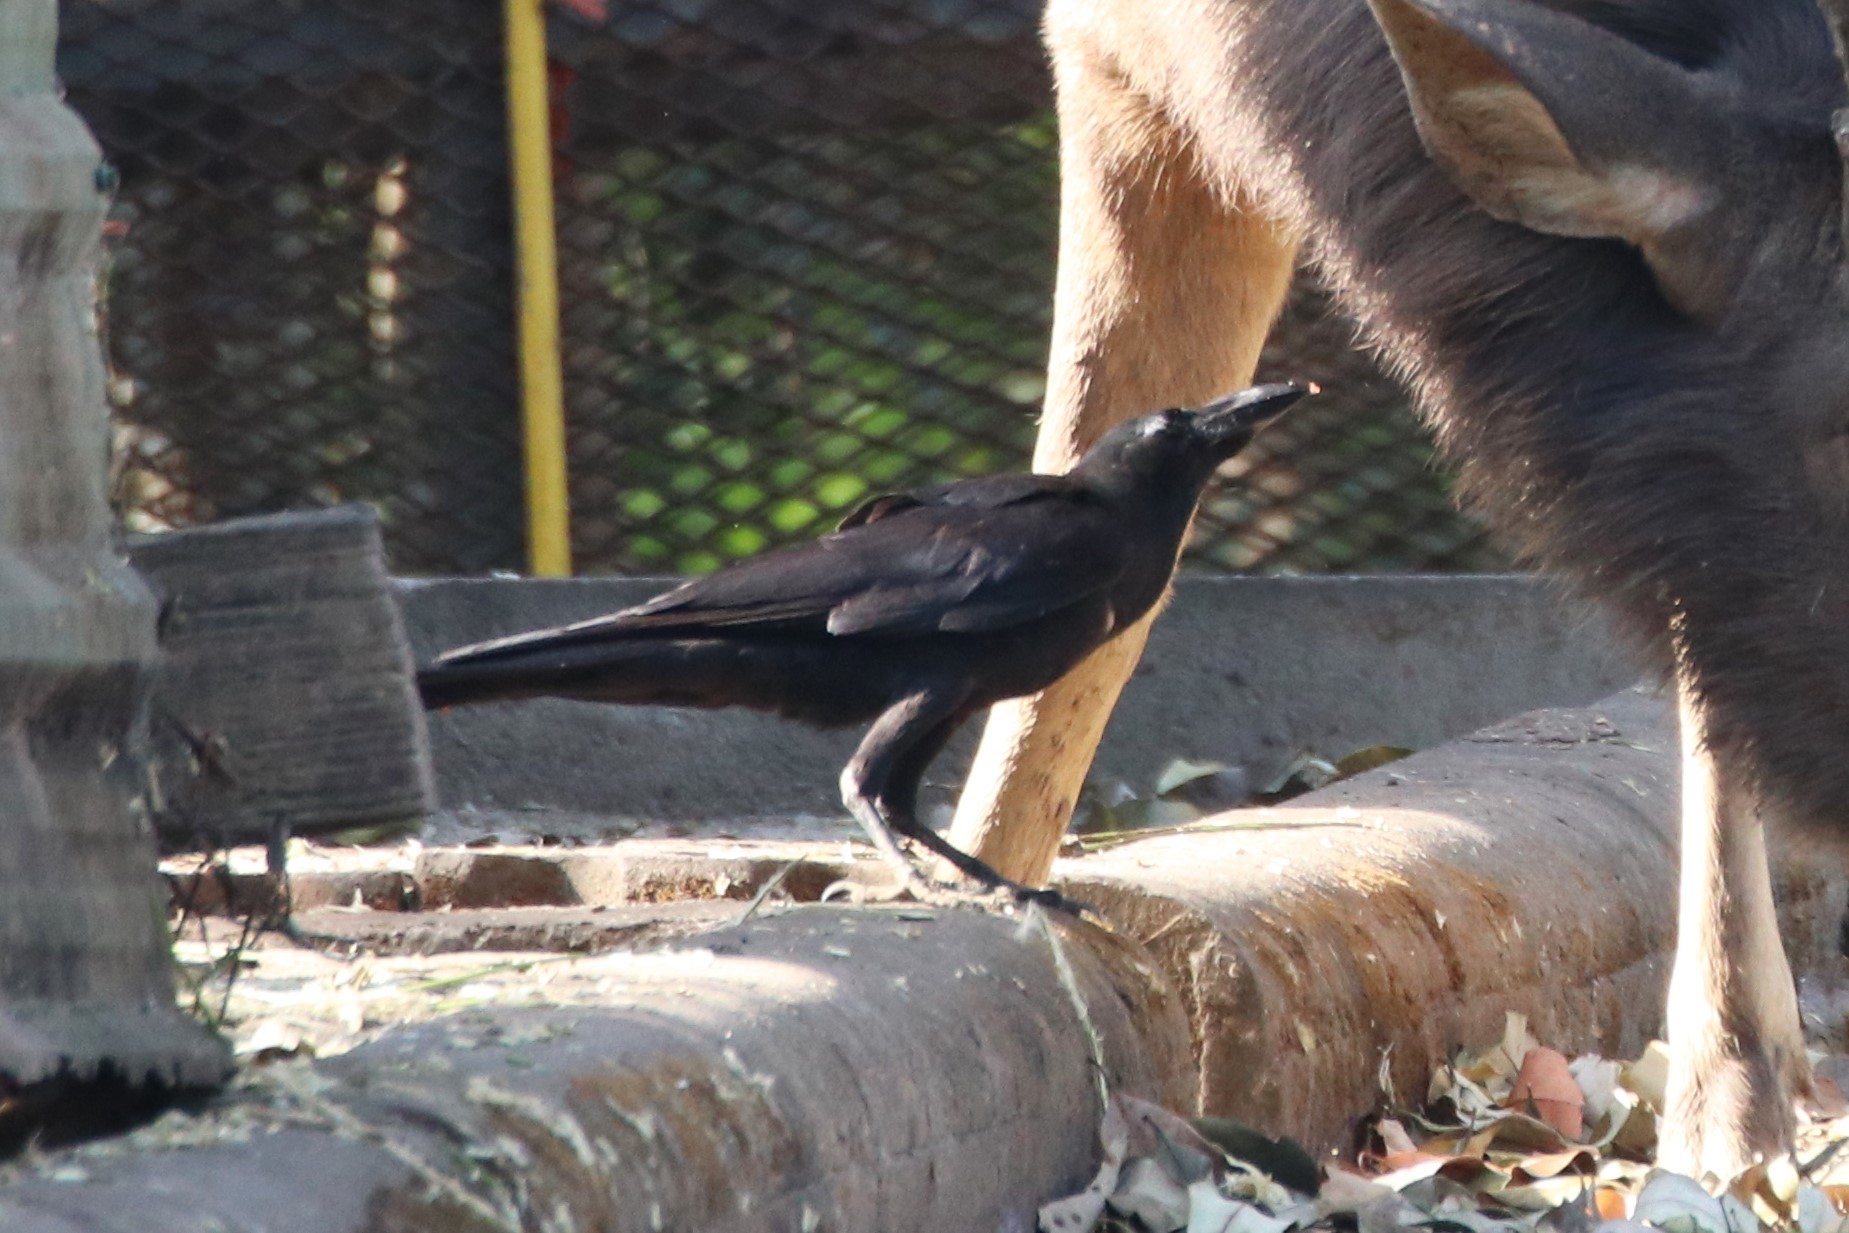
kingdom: Animalia
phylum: Chordata
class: Aves
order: Passeriformes
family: Corvidae
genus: Corvus
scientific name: Corvus macrorhynchos
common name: Large-billed crow
